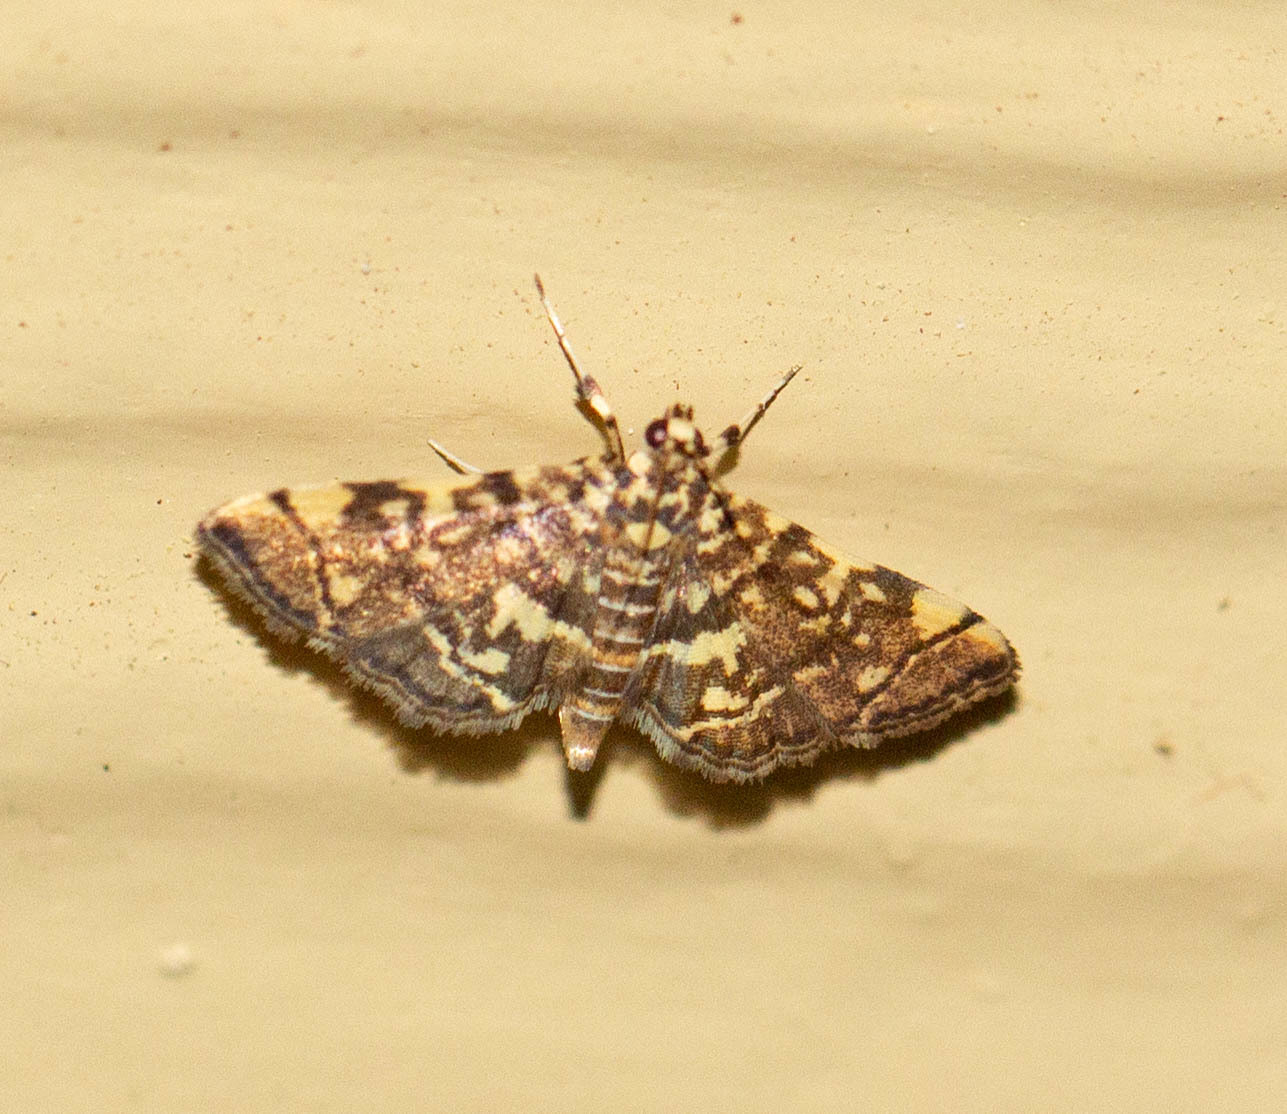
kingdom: Animalia
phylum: Arthropoda
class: Insecta
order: Lepidoptera
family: Crambidae
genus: Apogeshna
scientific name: Apogeshna stenialis
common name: Checkered apogeshna moth
